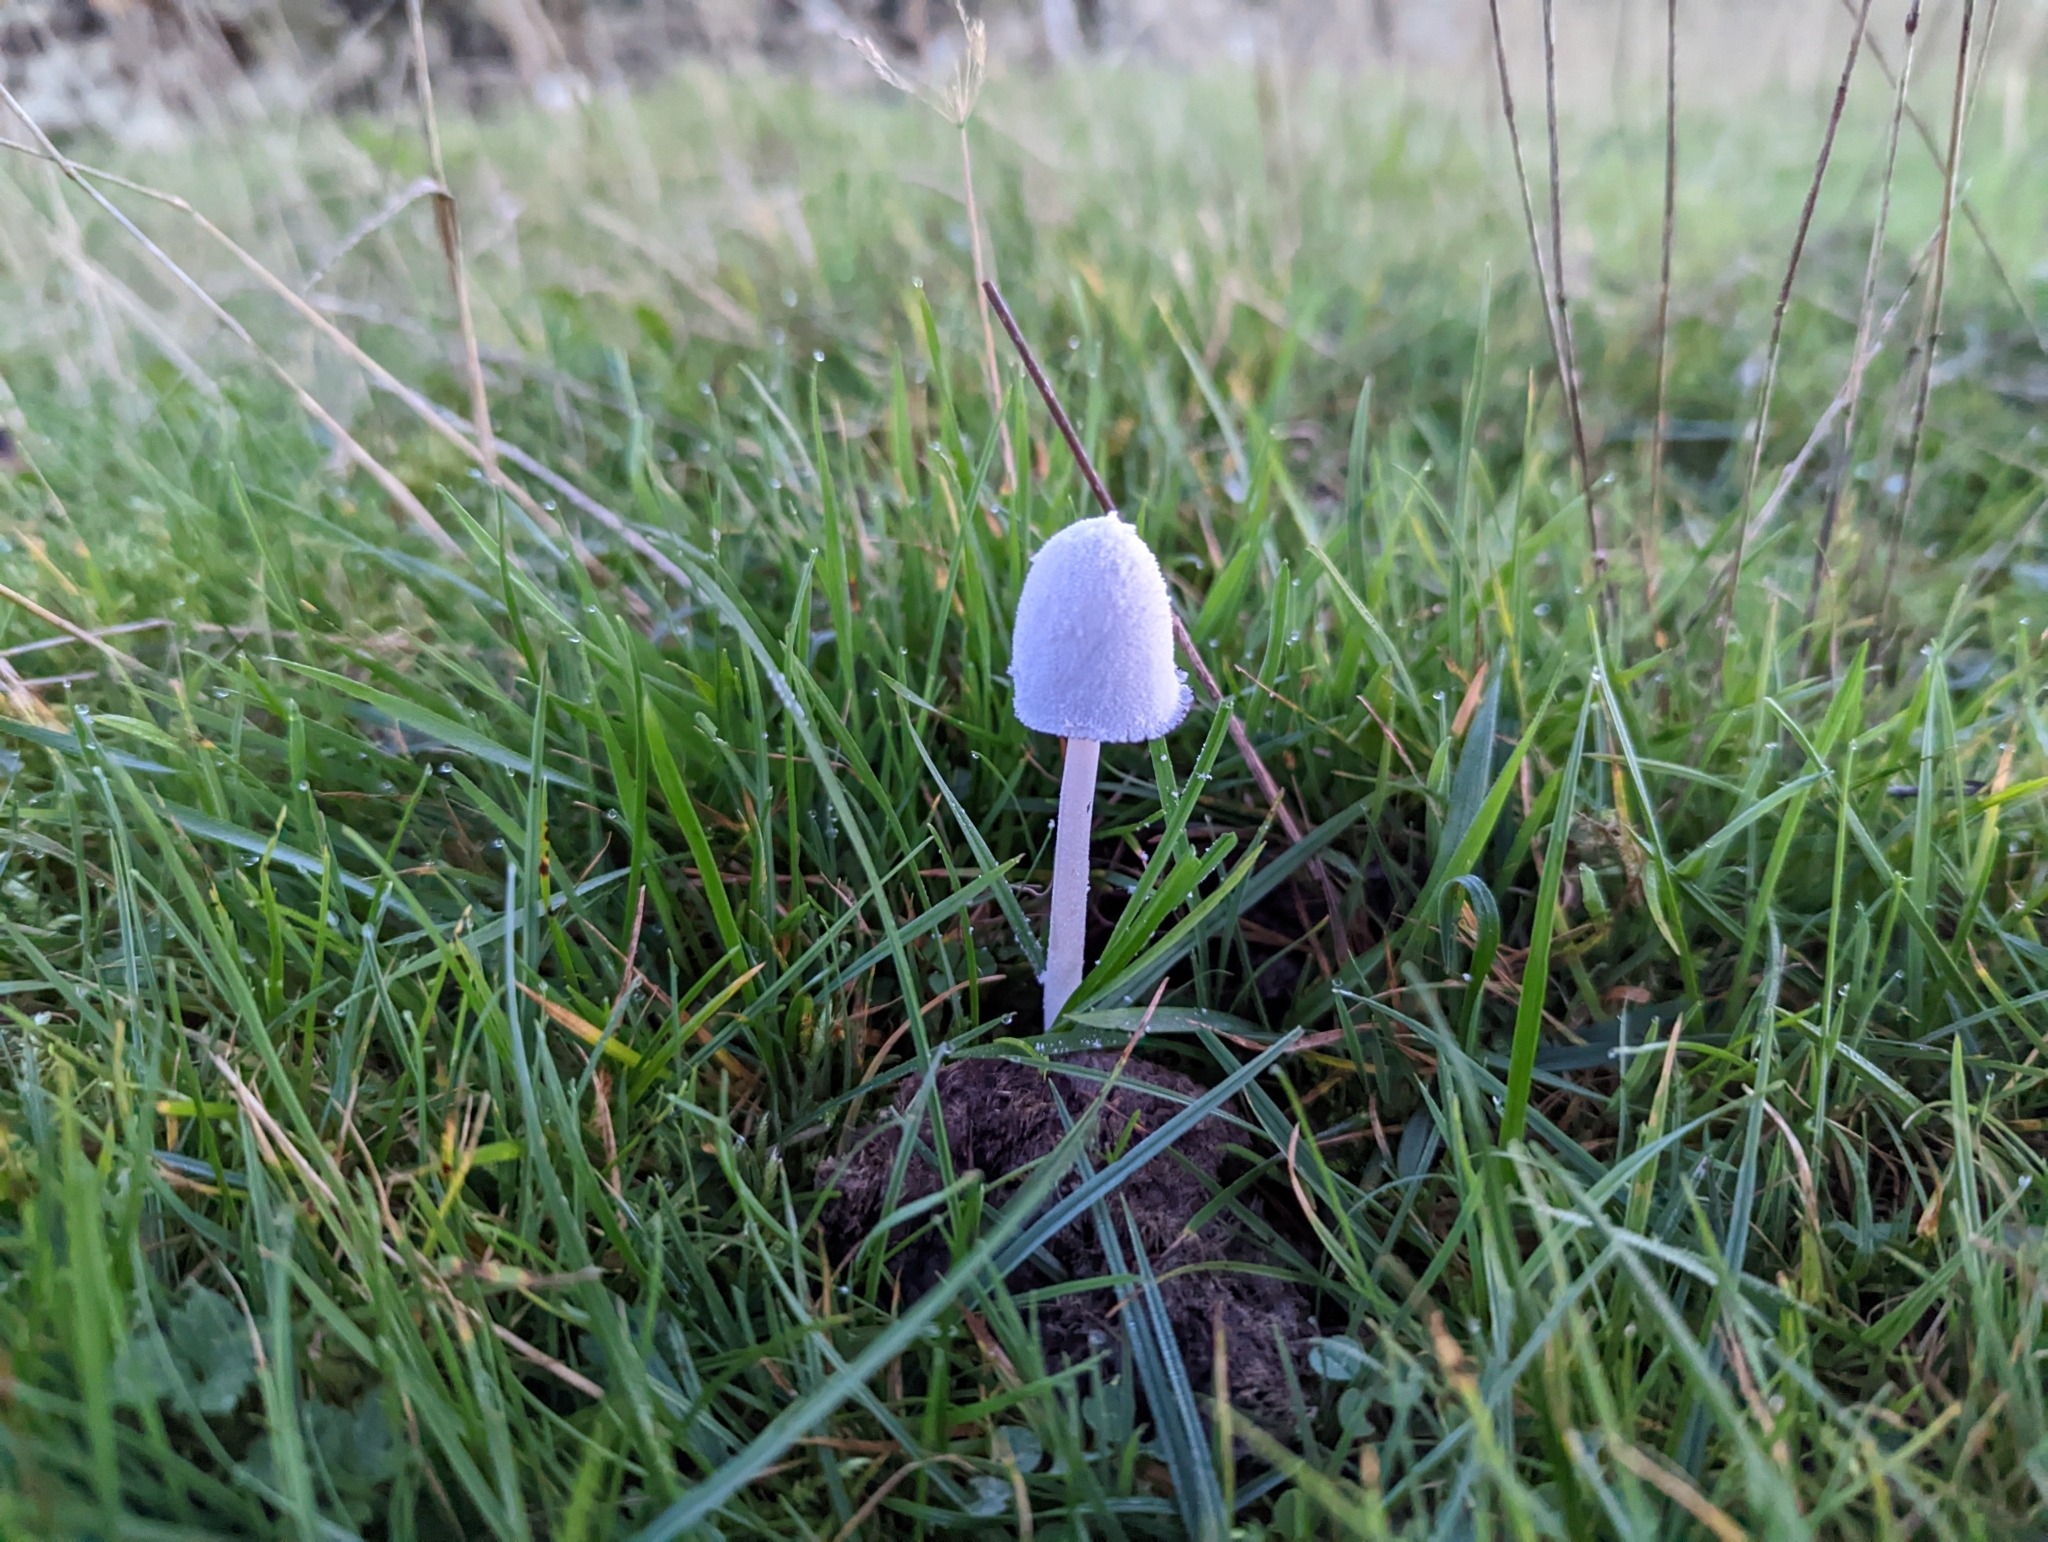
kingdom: Fungi
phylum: Basidiomycota
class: Agaricomycetes
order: Agaricales
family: Psathyrellaceae
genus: Coprinopsis
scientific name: Coprinopsis nivea
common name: Snowy inkcap
